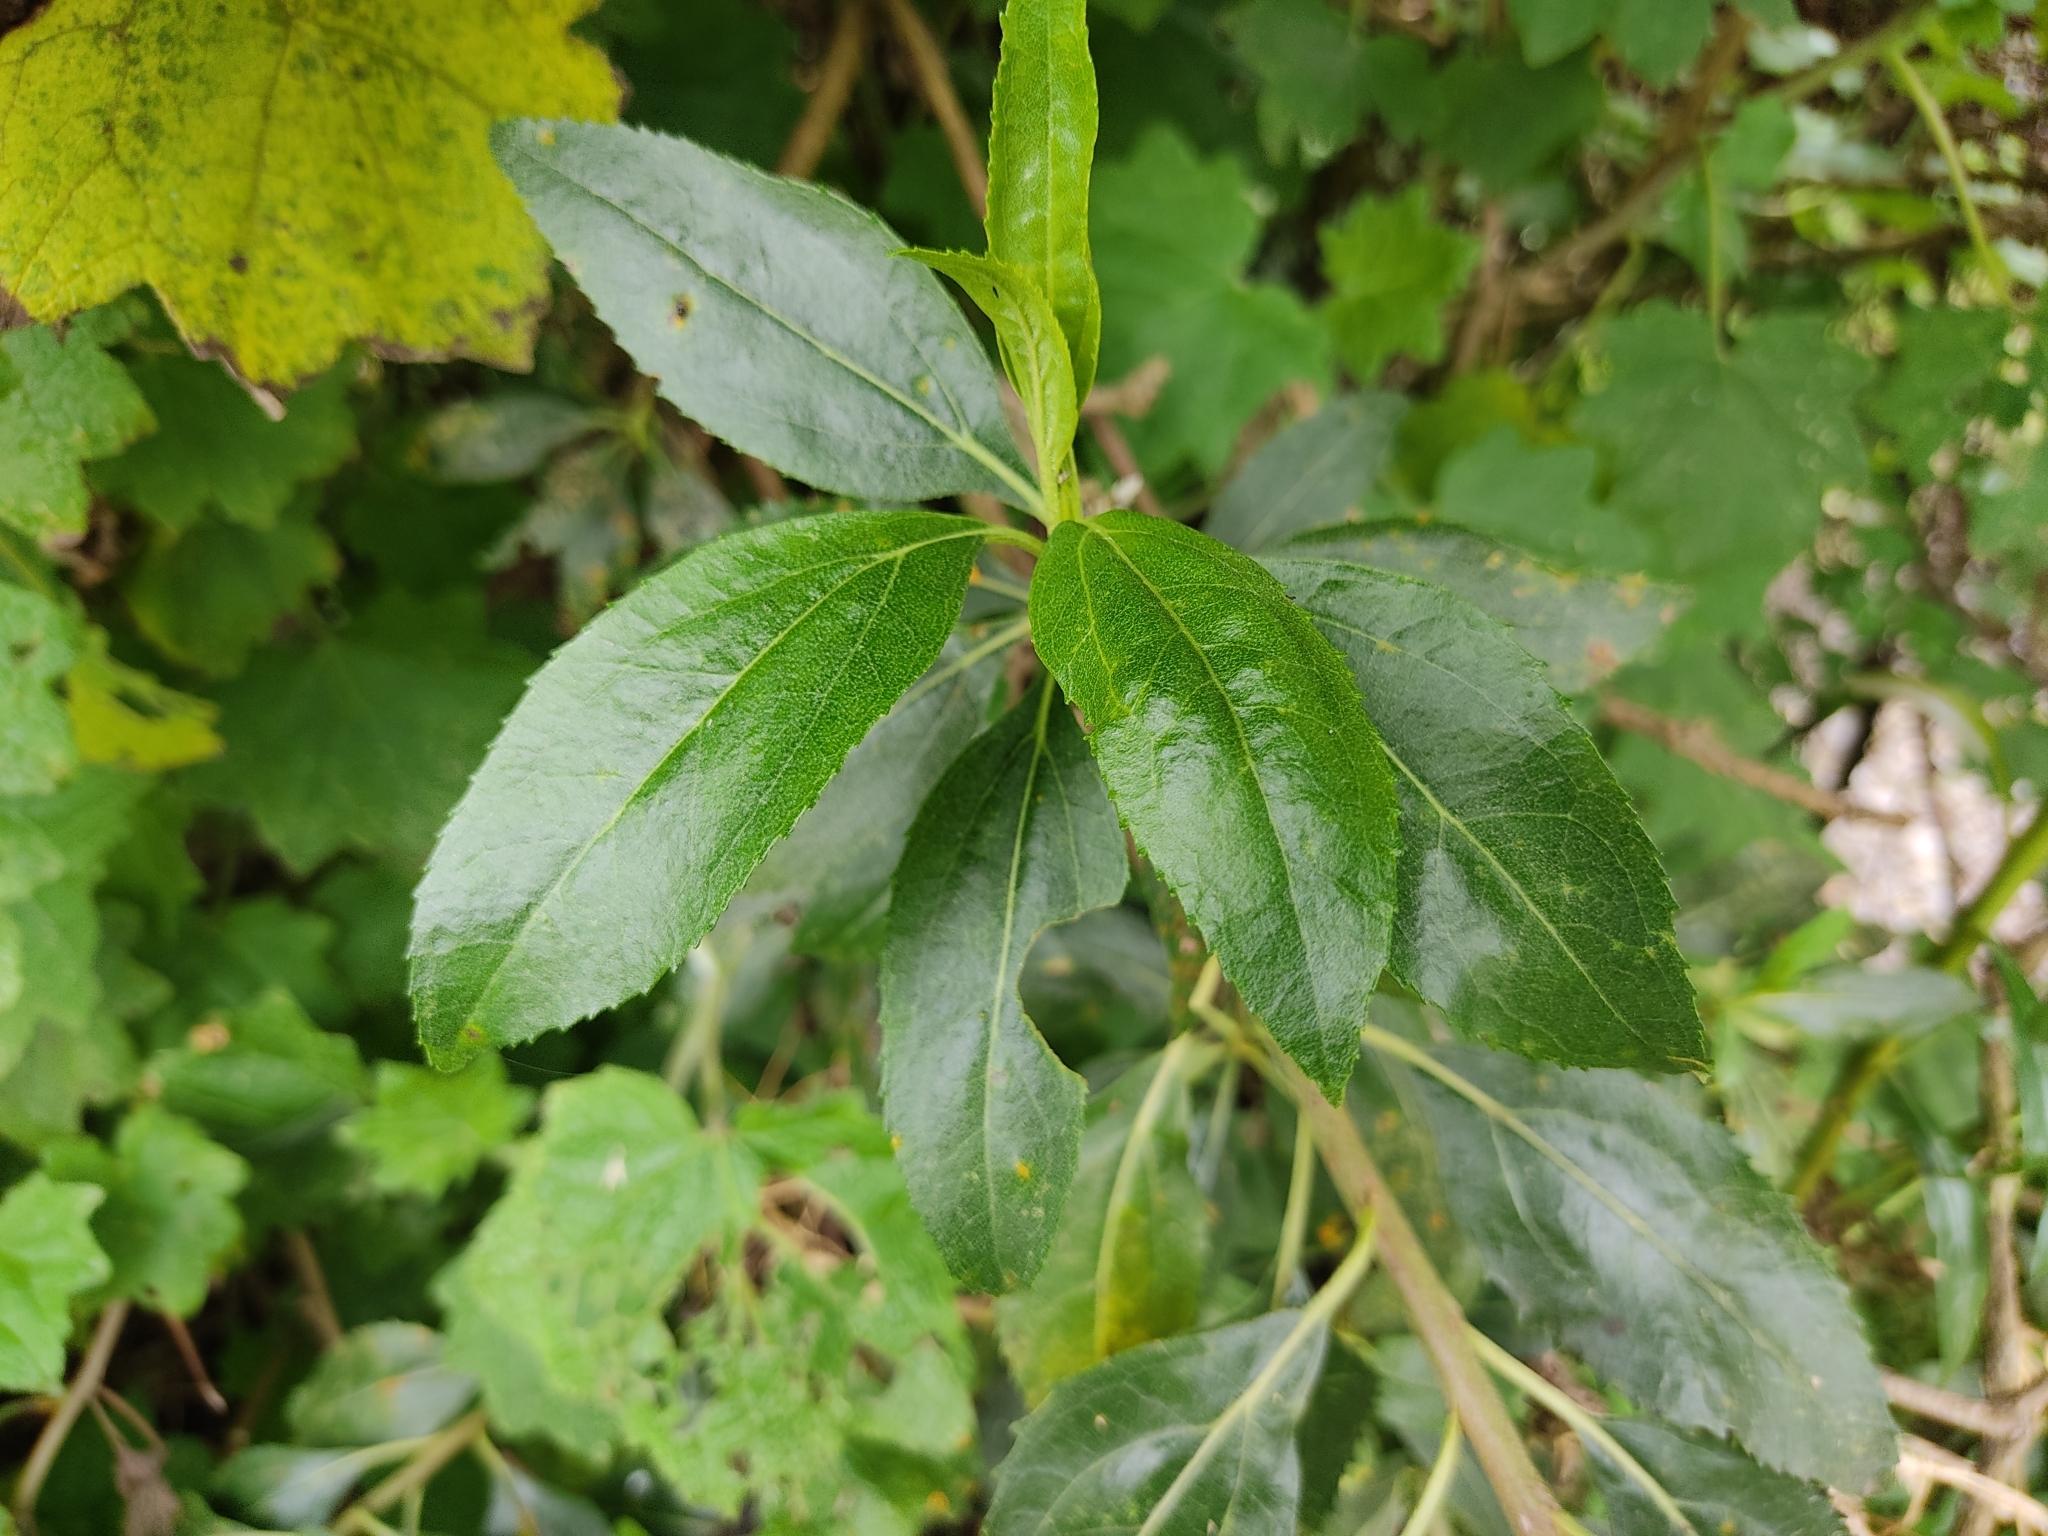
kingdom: Plantae
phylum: Tracheophyta
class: Magnoliopsida
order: Asterales
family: Asteraceae
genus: Baccharis
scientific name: Baccharis latifolia
